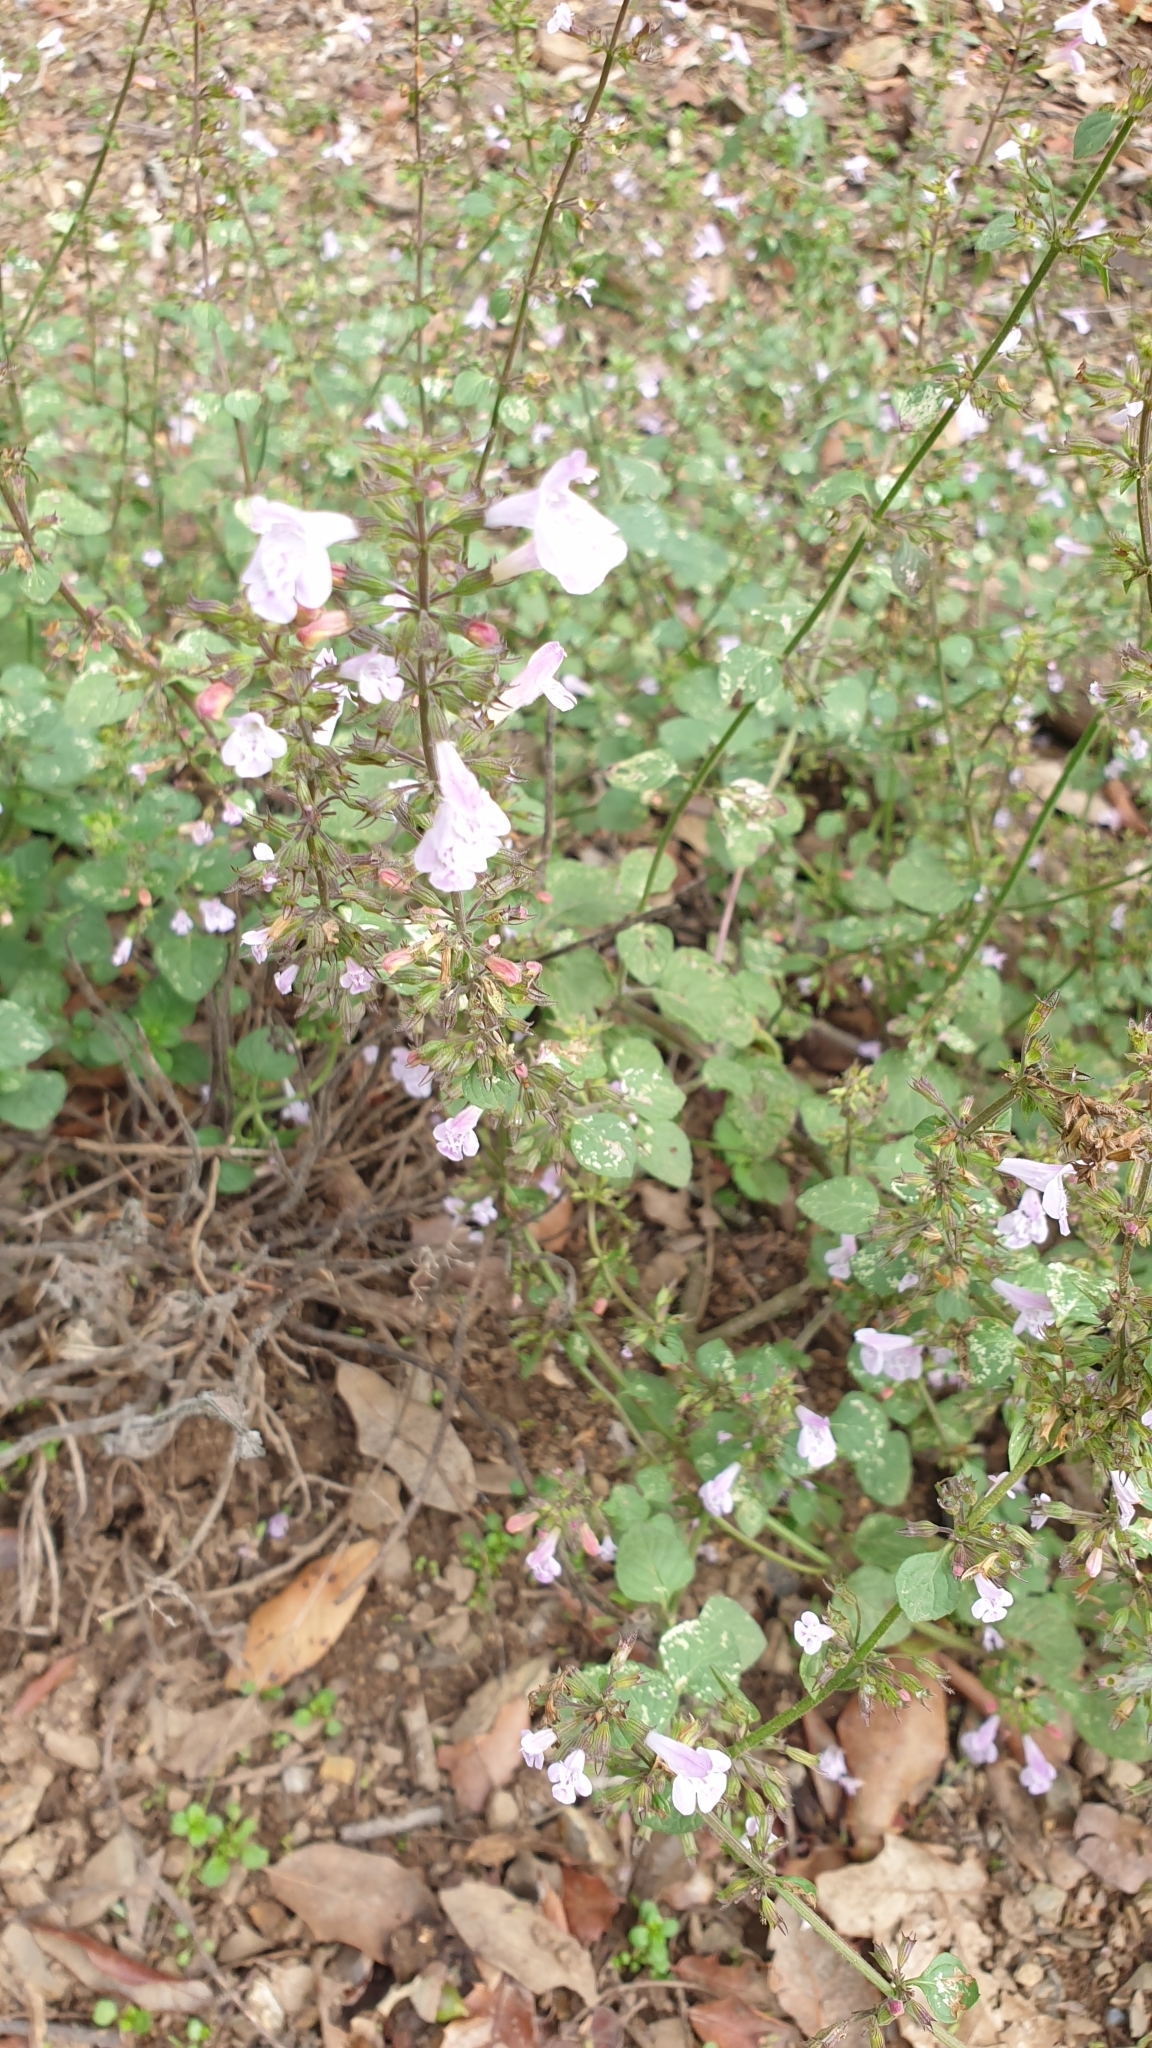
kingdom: Plantae
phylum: Tracheophyta
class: Magnoliopsida
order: Lamiales
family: Lamiaceae
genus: Clinopodium
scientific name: Clinopodium nepeta
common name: Lesser calamint
